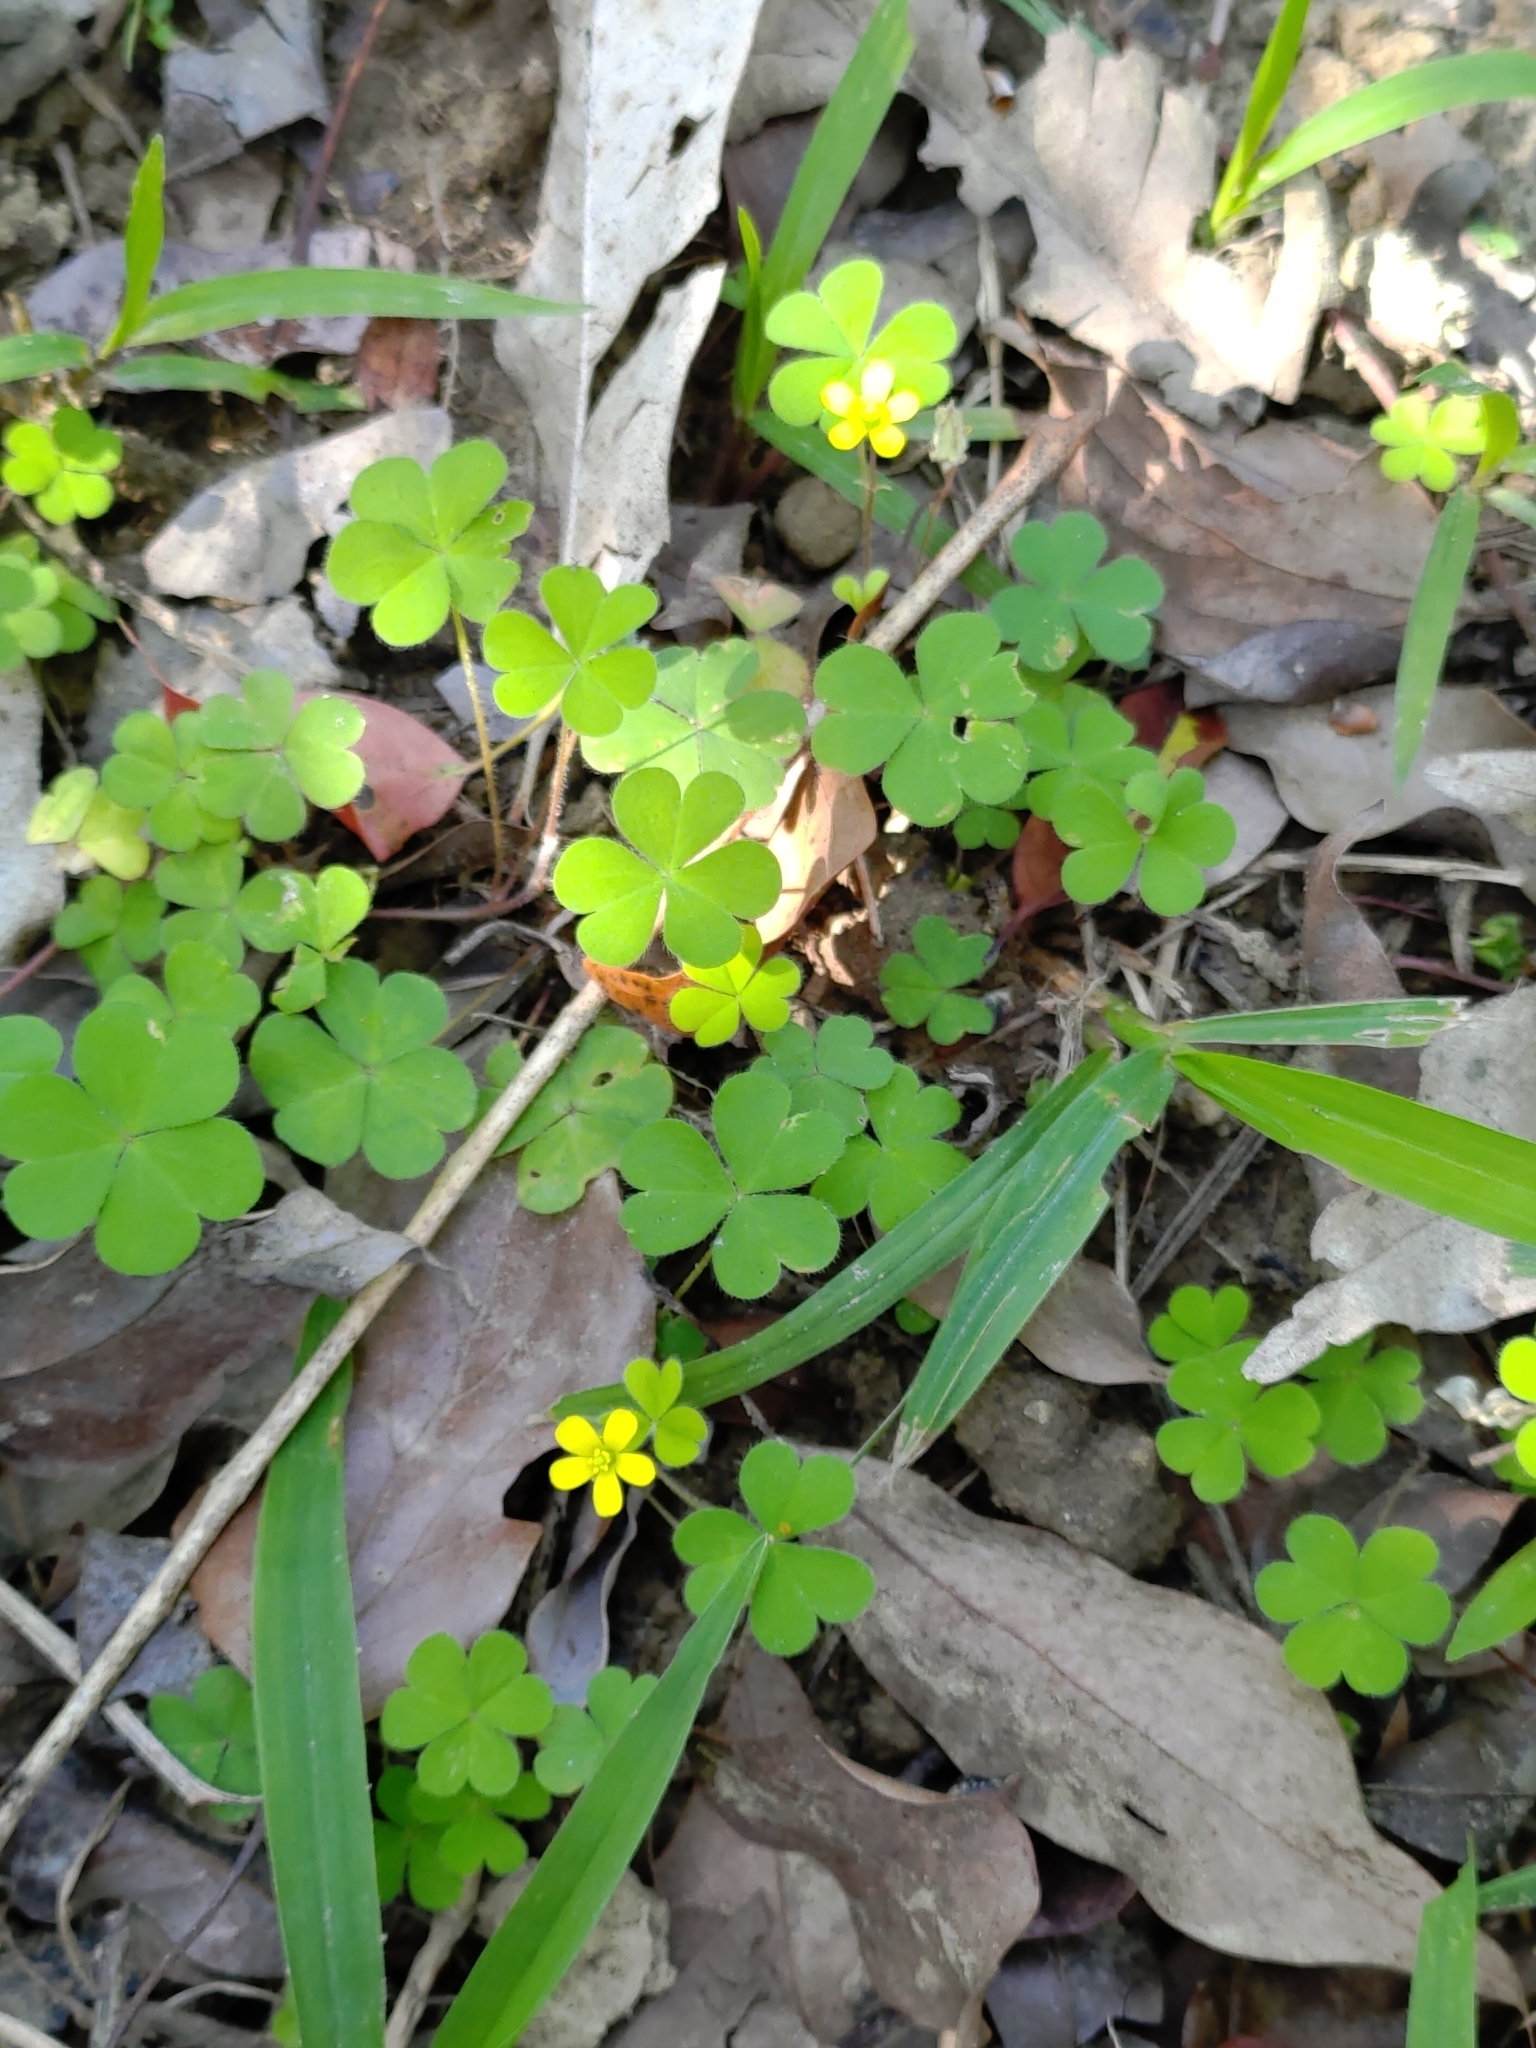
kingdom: Plantae
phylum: Tracheophyta
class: Magnoliopsida
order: Oxalidales
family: Oxalidaceae
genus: Oxalis
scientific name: Oxalis corniculata
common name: Procumbent yellow-sorrel
